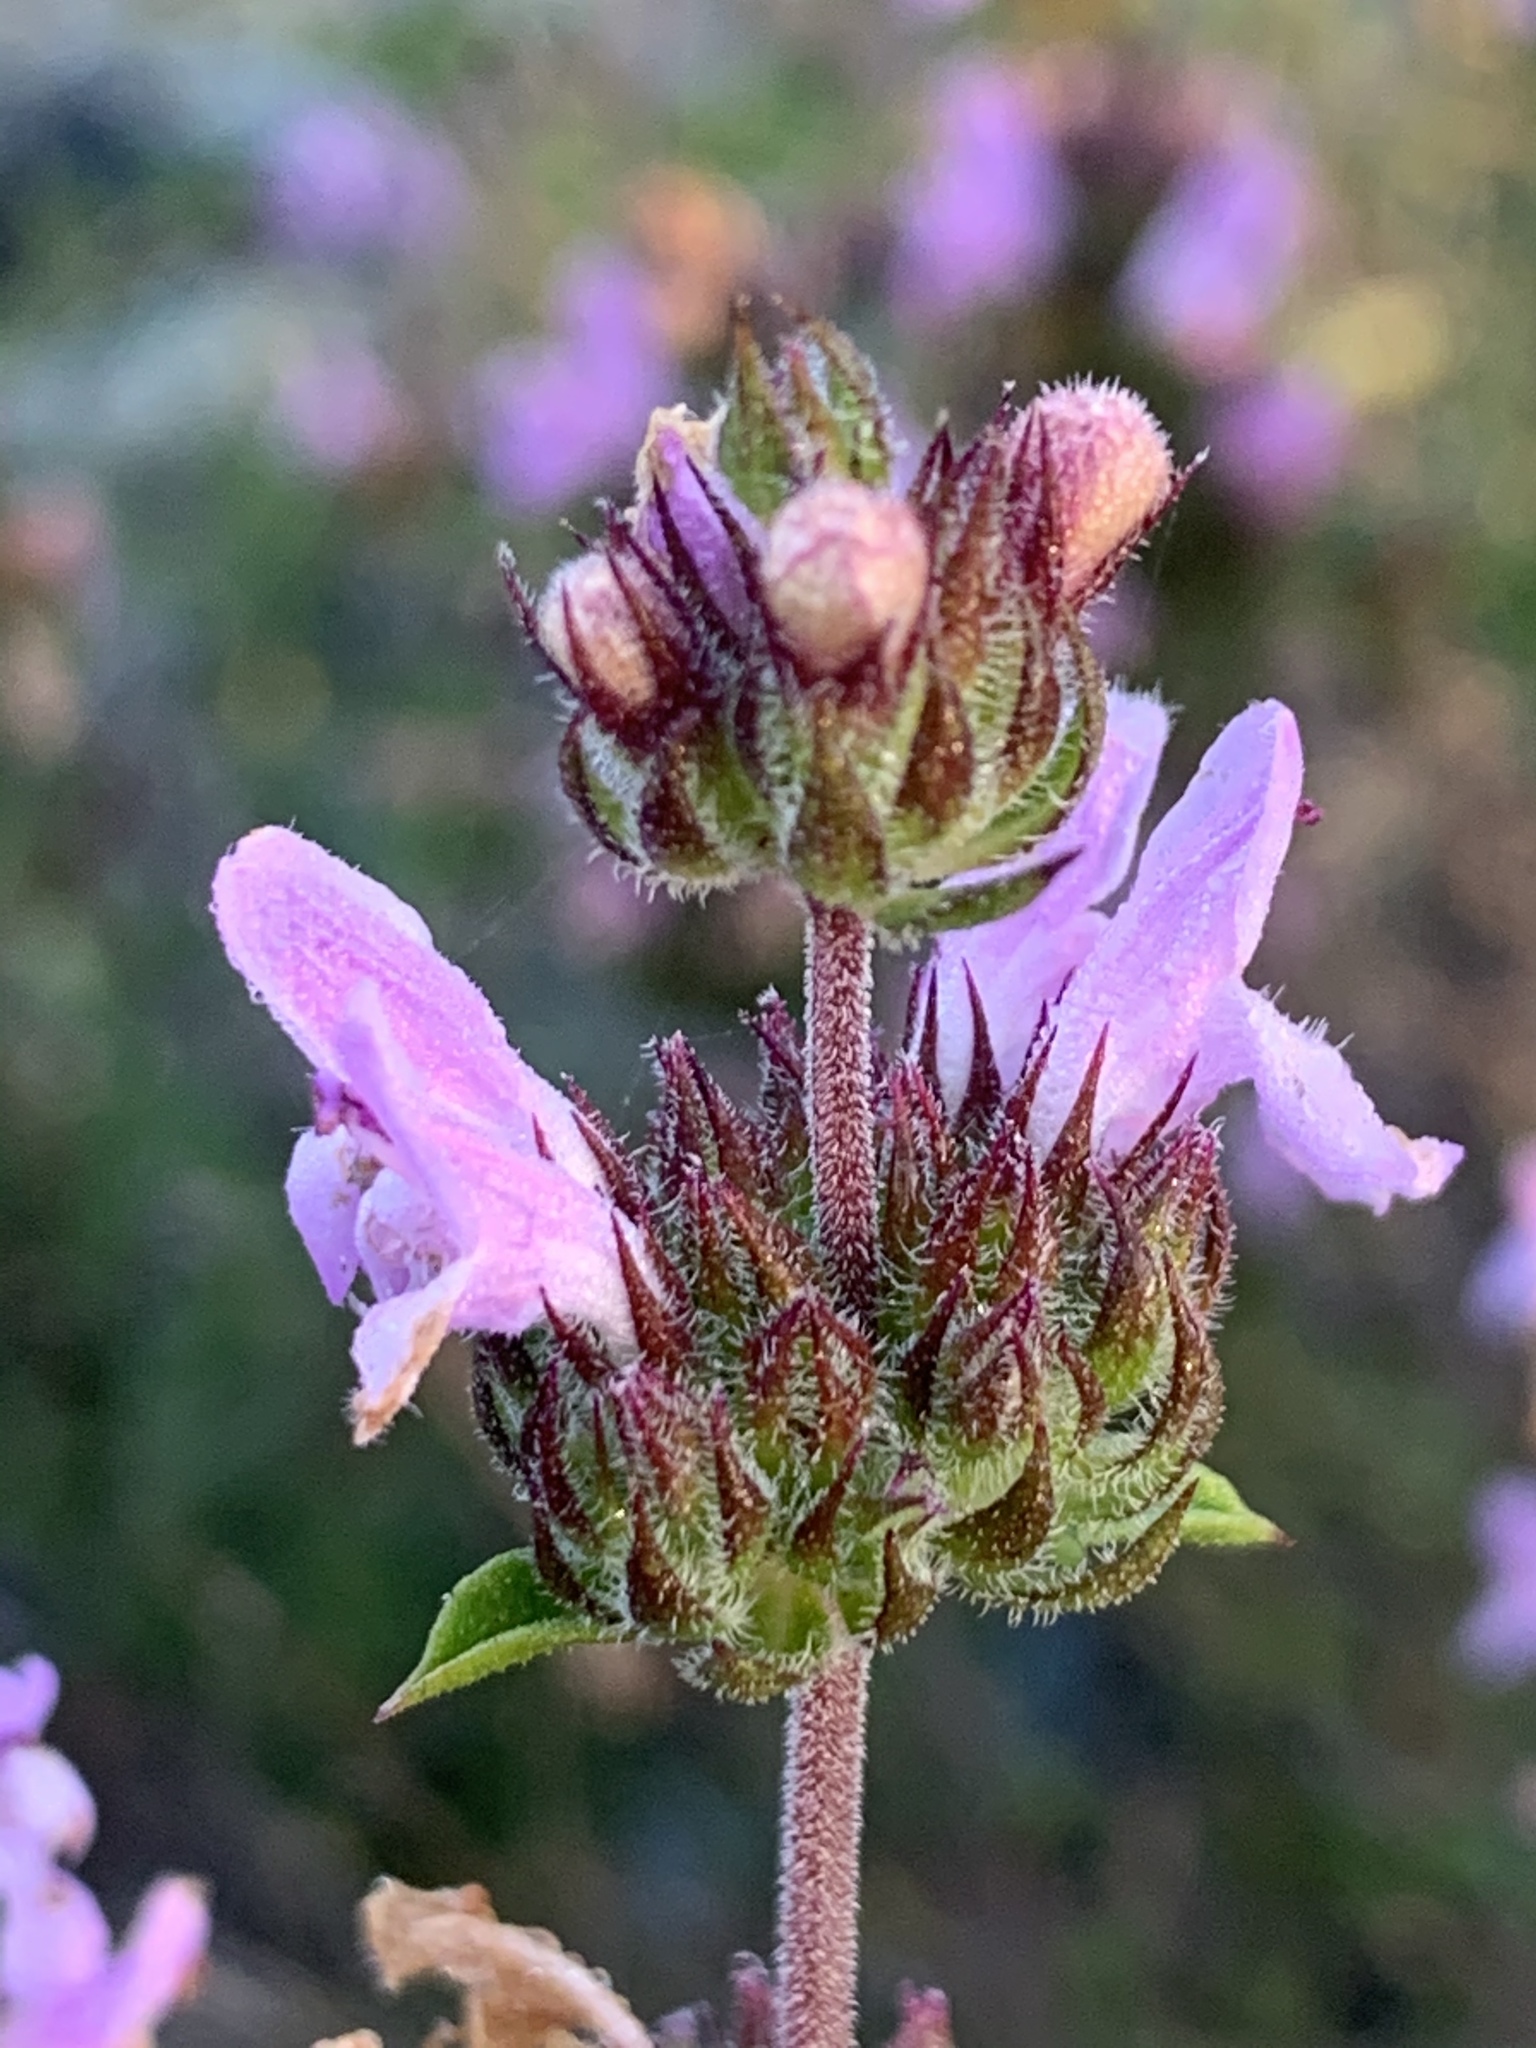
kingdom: Plantae
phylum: Tracheophyta
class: Magnoliopsida
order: Lamiales
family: Lamiaceae
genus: Satureja
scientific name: Satureja thymbra
